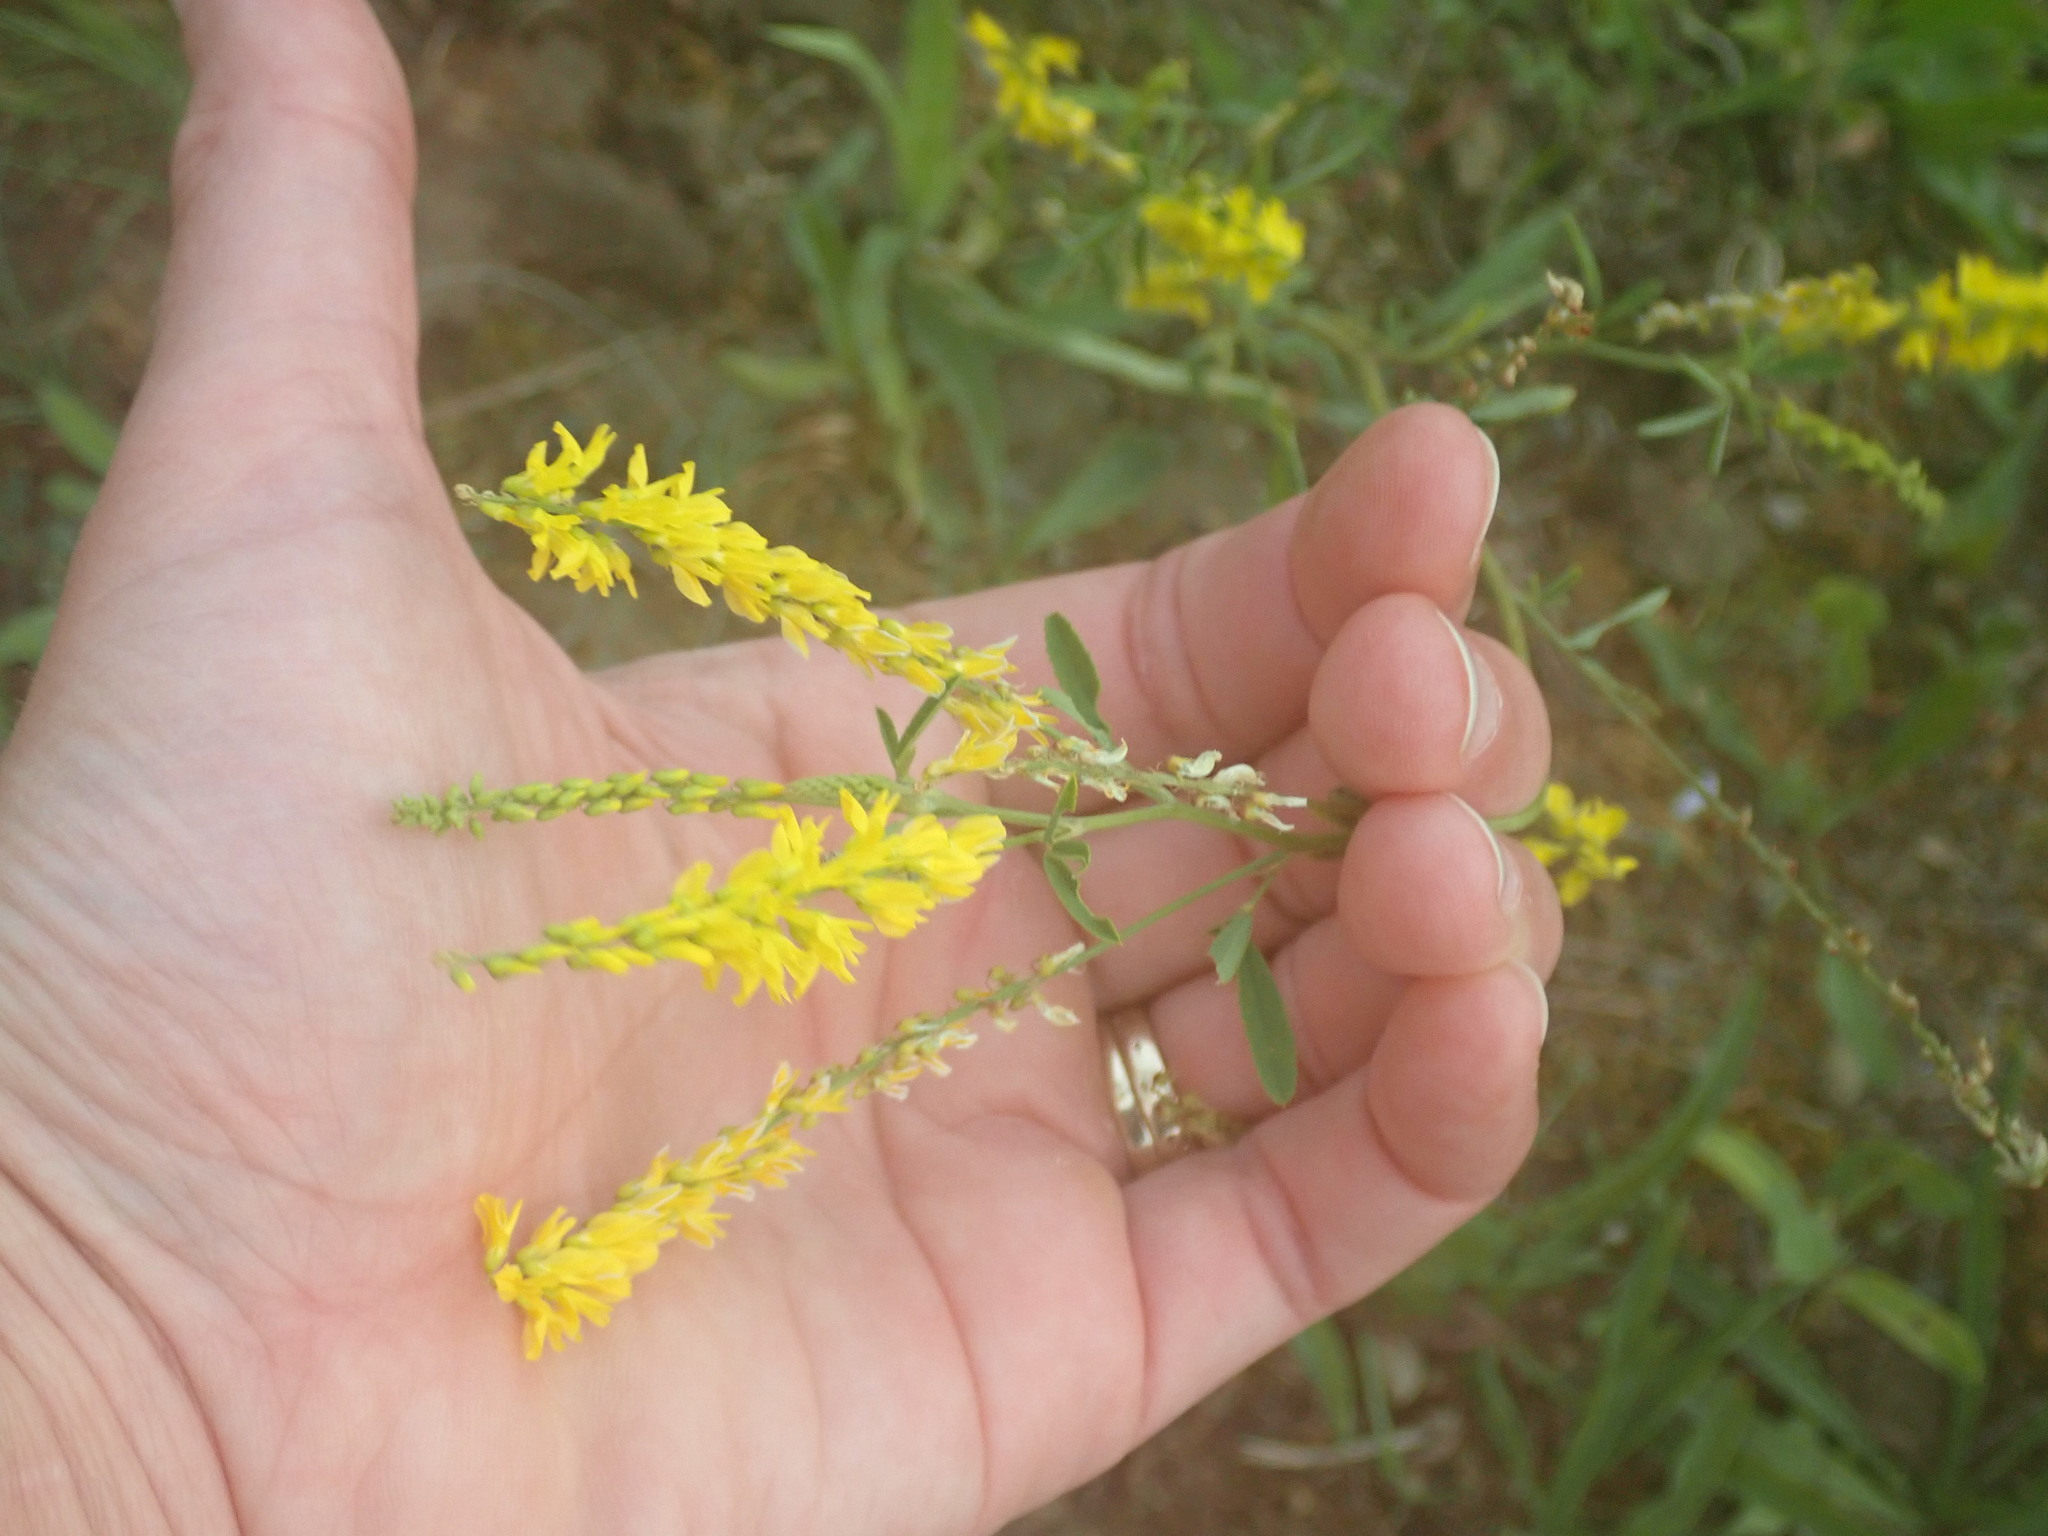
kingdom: Plantae
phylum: Tracheophyta
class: Magnoliopsida
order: Fabales
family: Fabaceae
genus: Melilotus
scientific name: Melilotus officinalis
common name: Sweetclover
